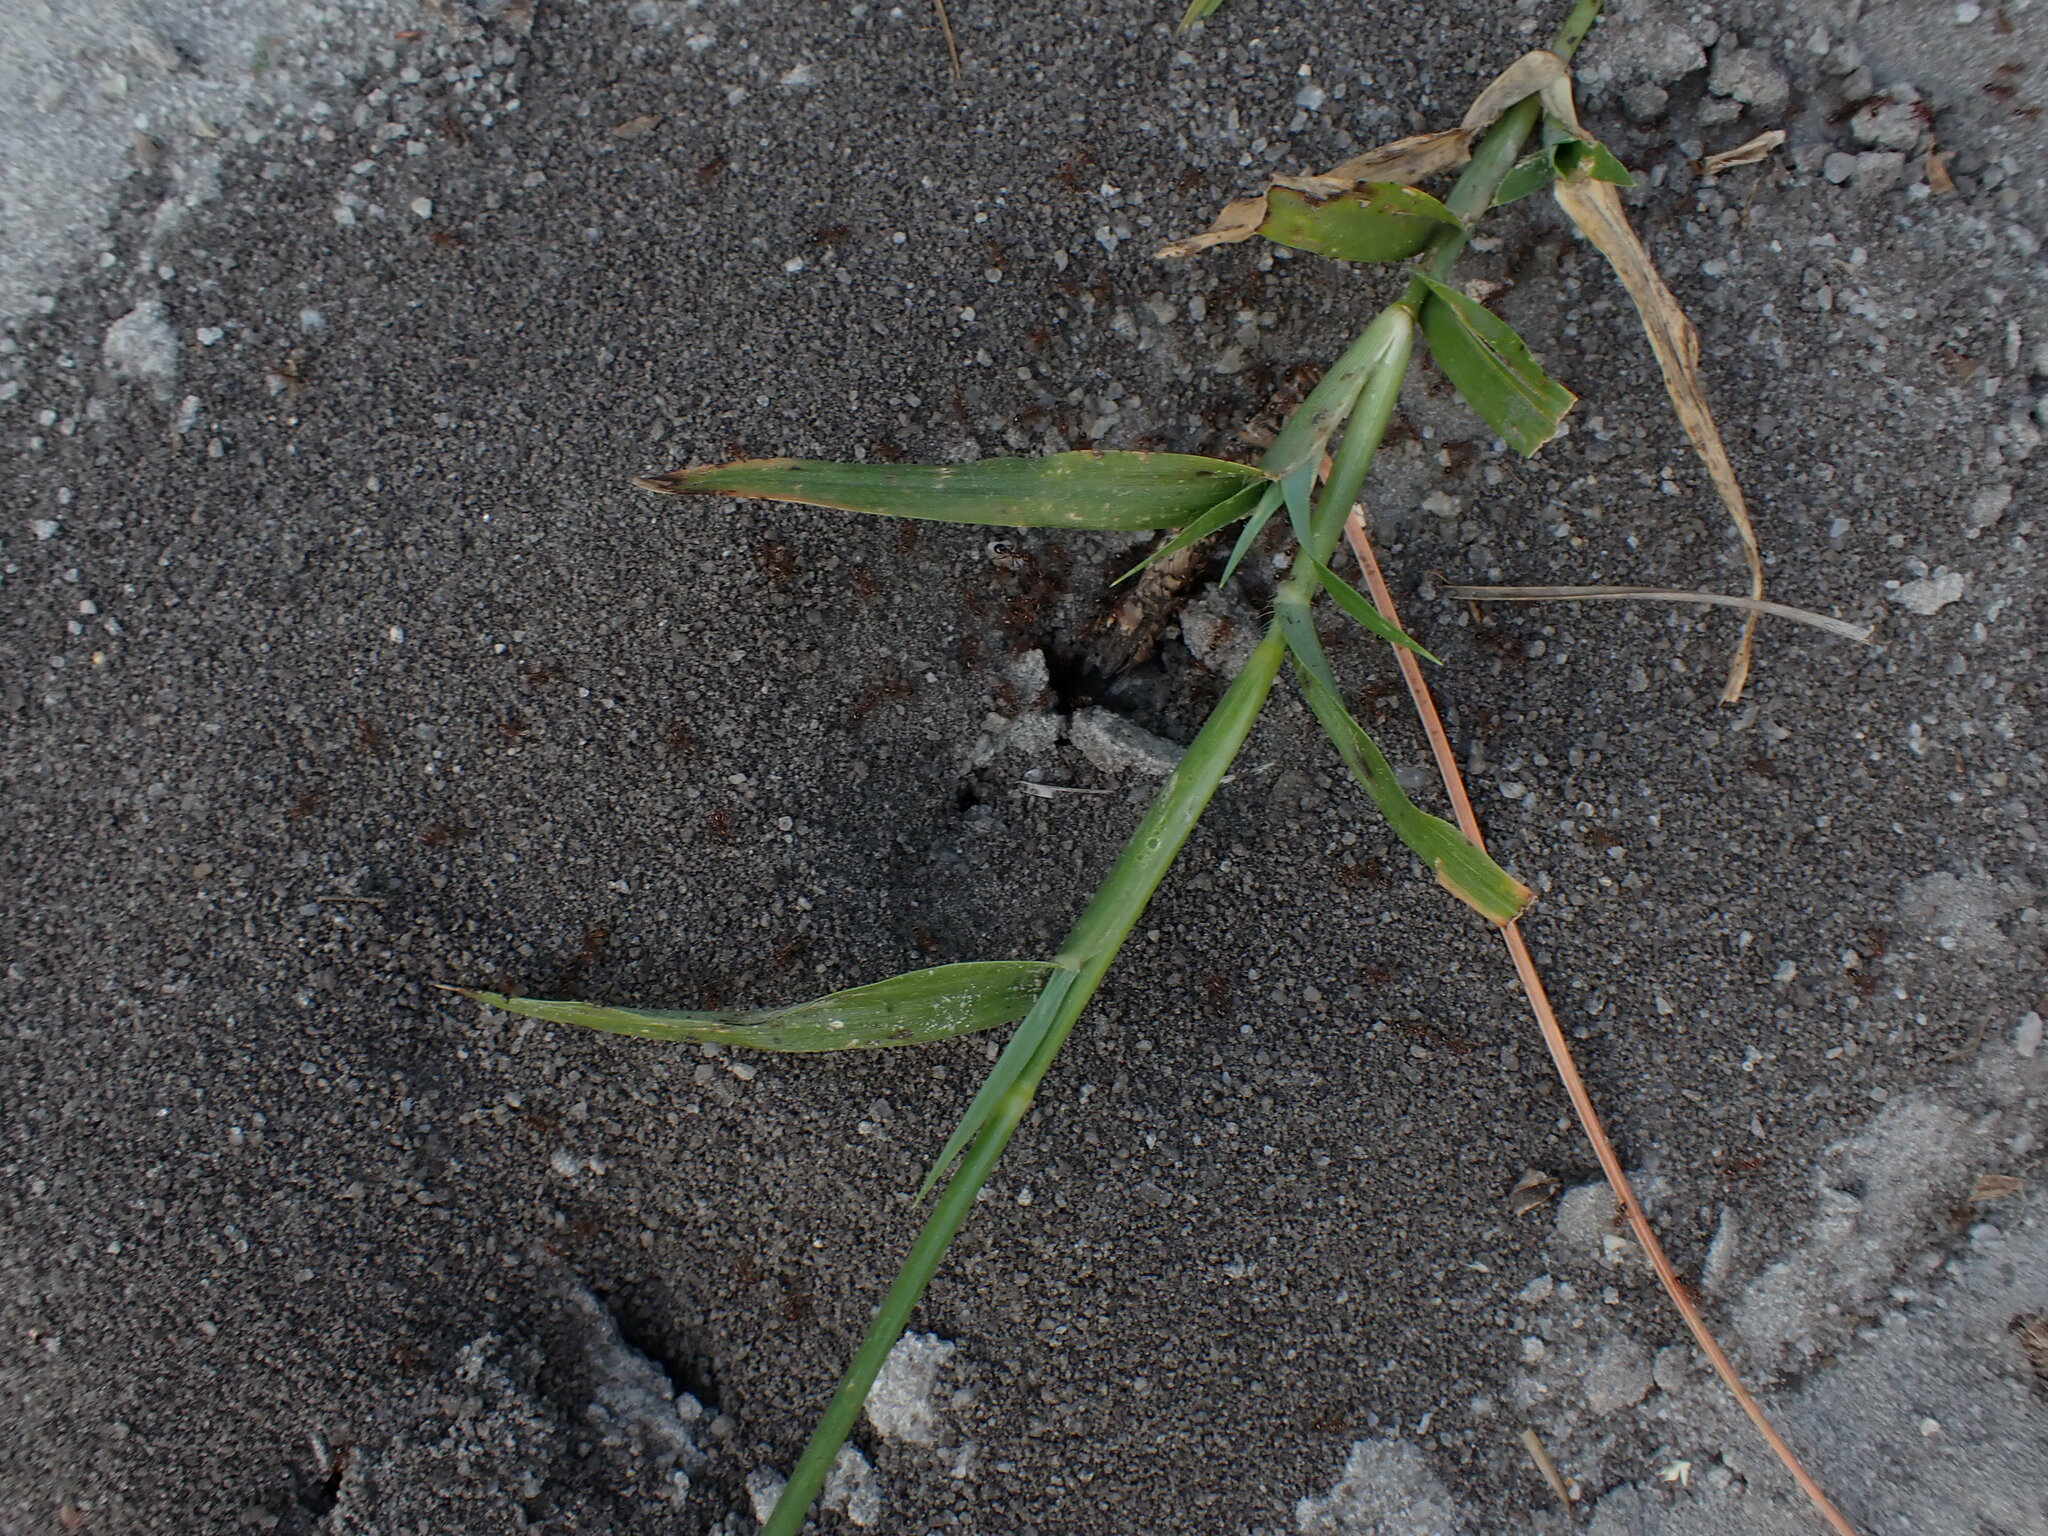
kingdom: Animalia
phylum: Arthropoda
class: Insecta
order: Hymenoptera
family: Formicidae
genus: Solenopsis
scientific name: Solenopsis invicta
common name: Red imported fire ant
